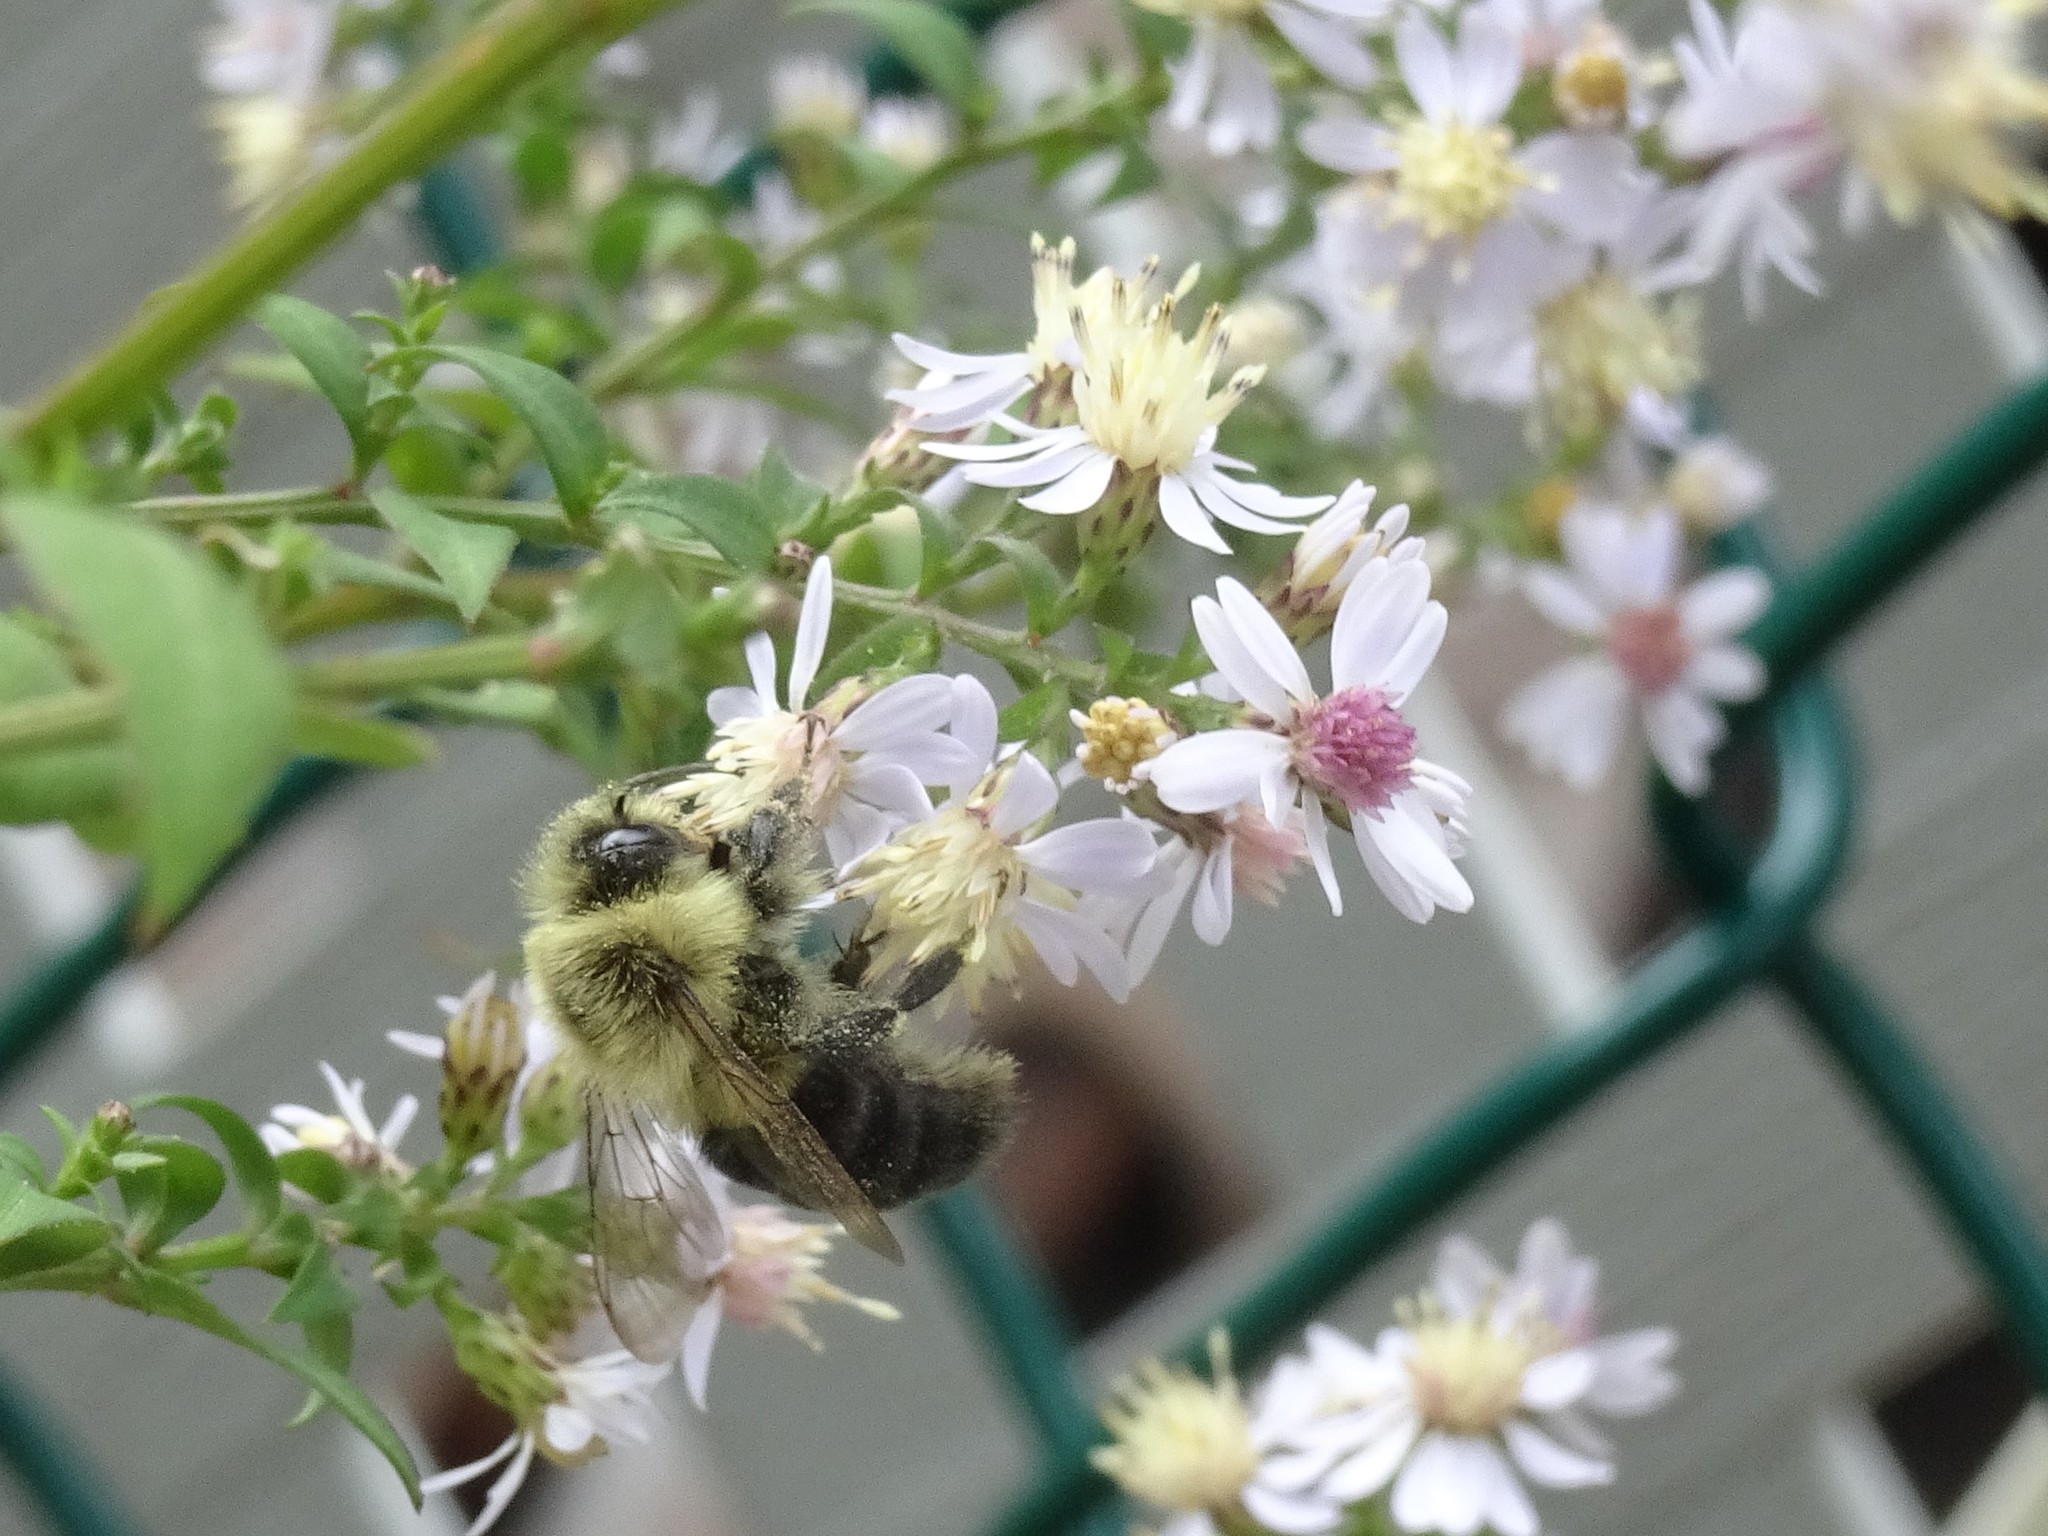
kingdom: Animalia
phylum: Arthropoda
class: Insecta
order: Hymenoptera
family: Apidae
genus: Bombus
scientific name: Bombus impatiens
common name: Common eastern bumble bee
